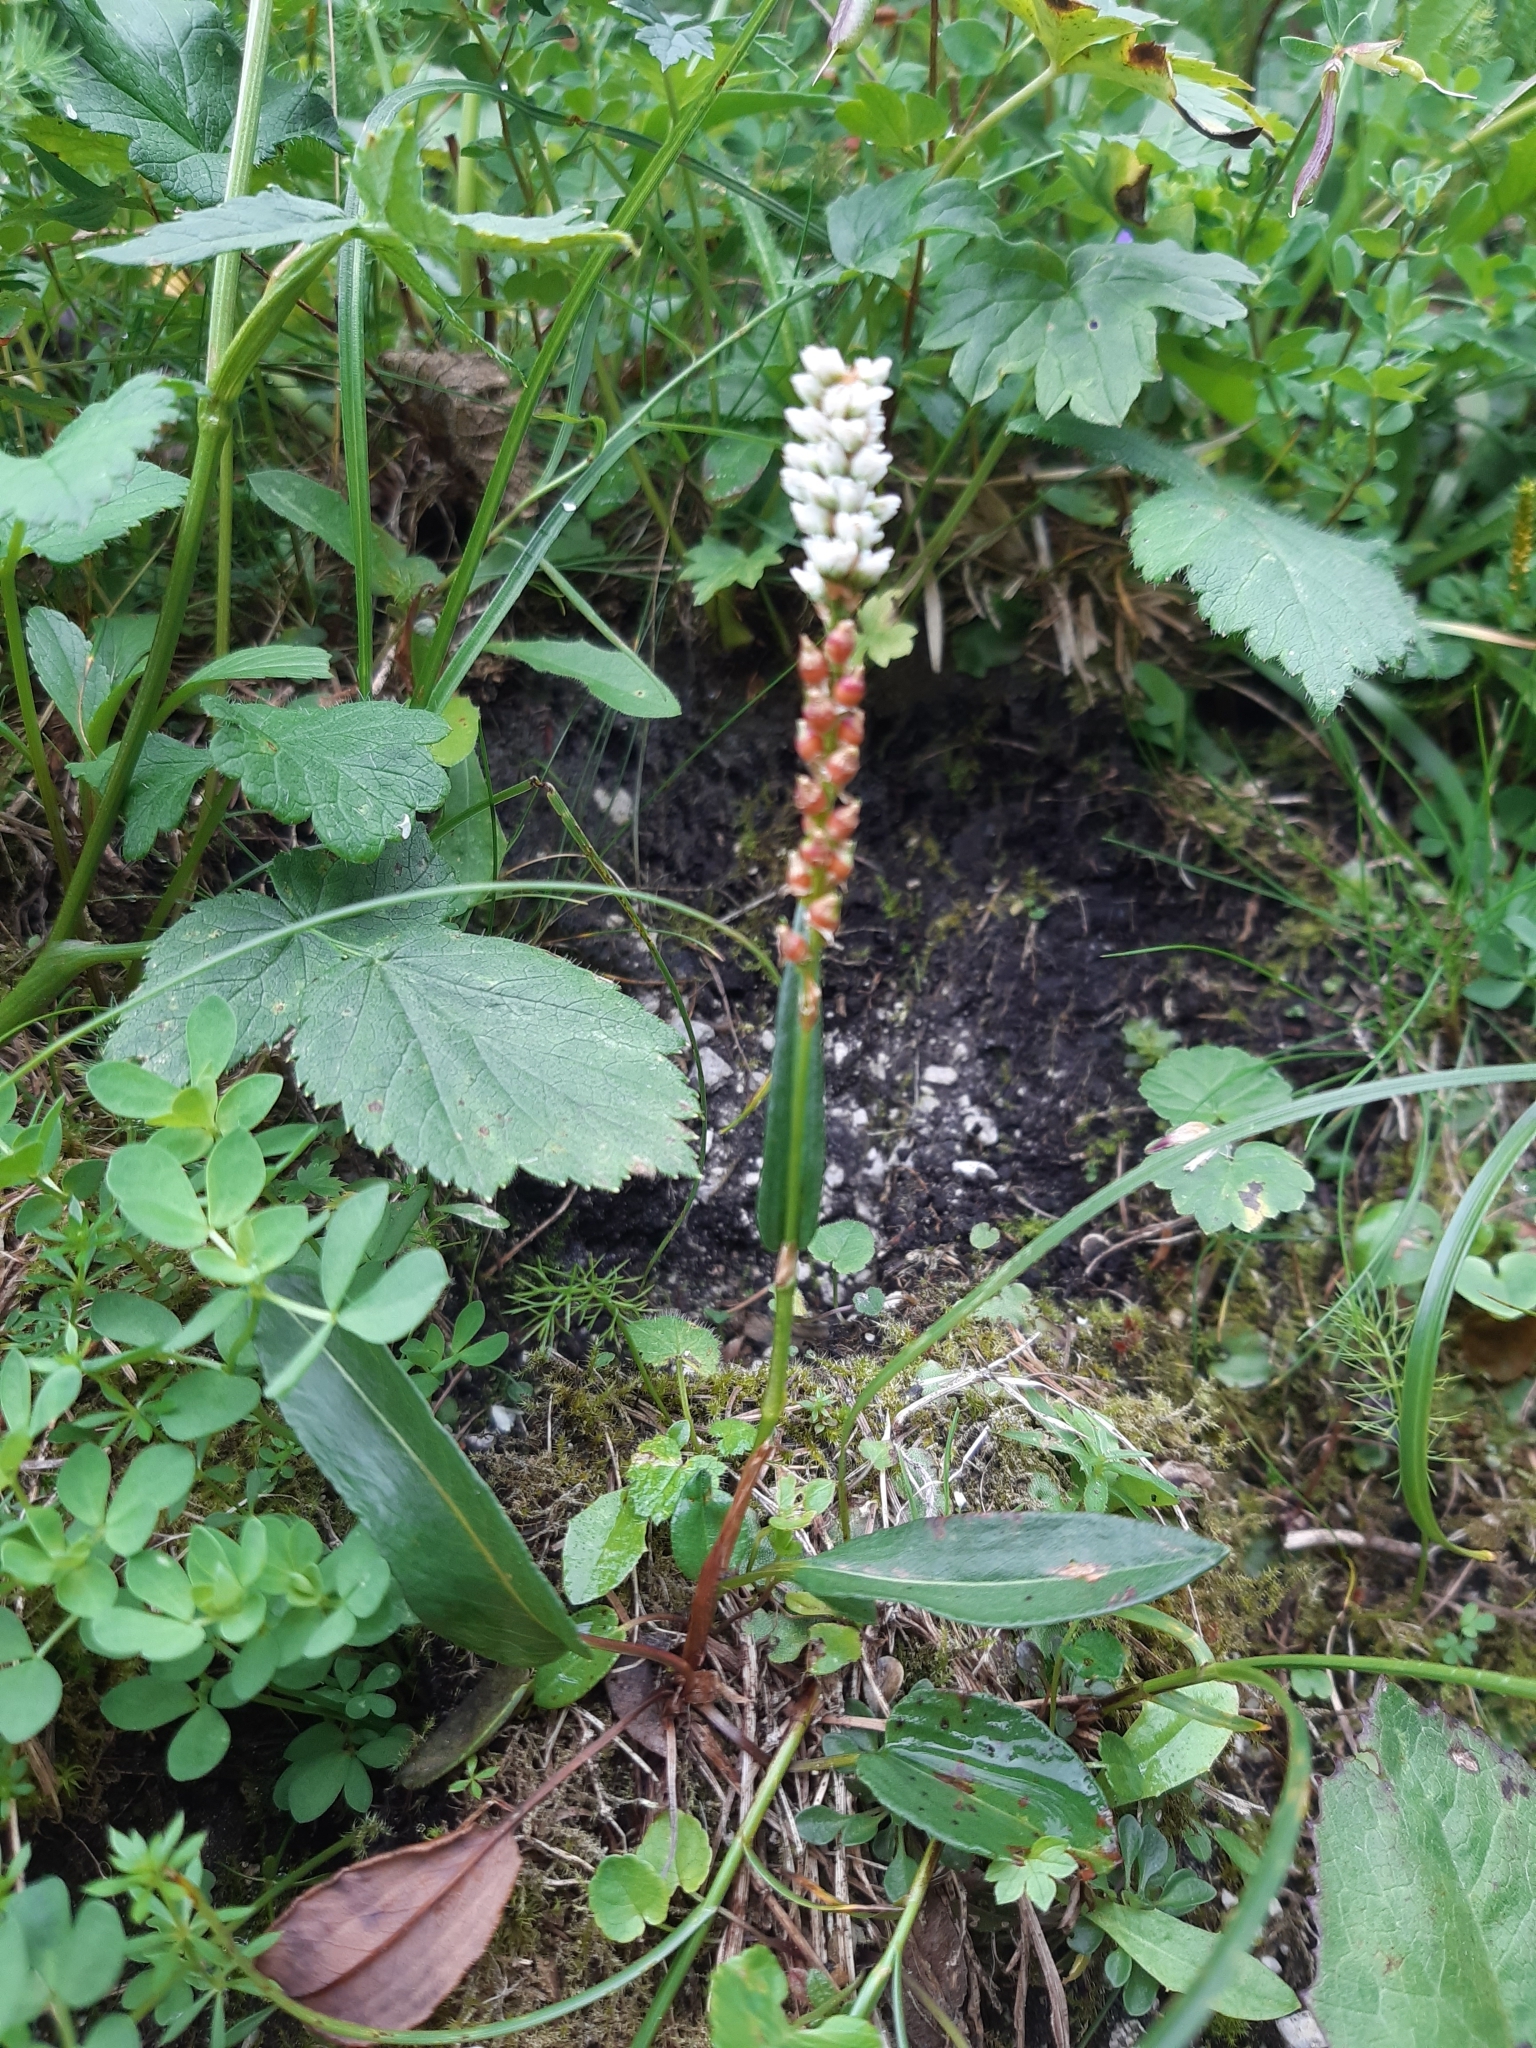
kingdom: Plantae
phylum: Tracheophyta
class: Magnoliopsida
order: Caryophyllales
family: Polygonaceae
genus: Bistorta
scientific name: Bistorta vivipara
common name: Alpine bistort
